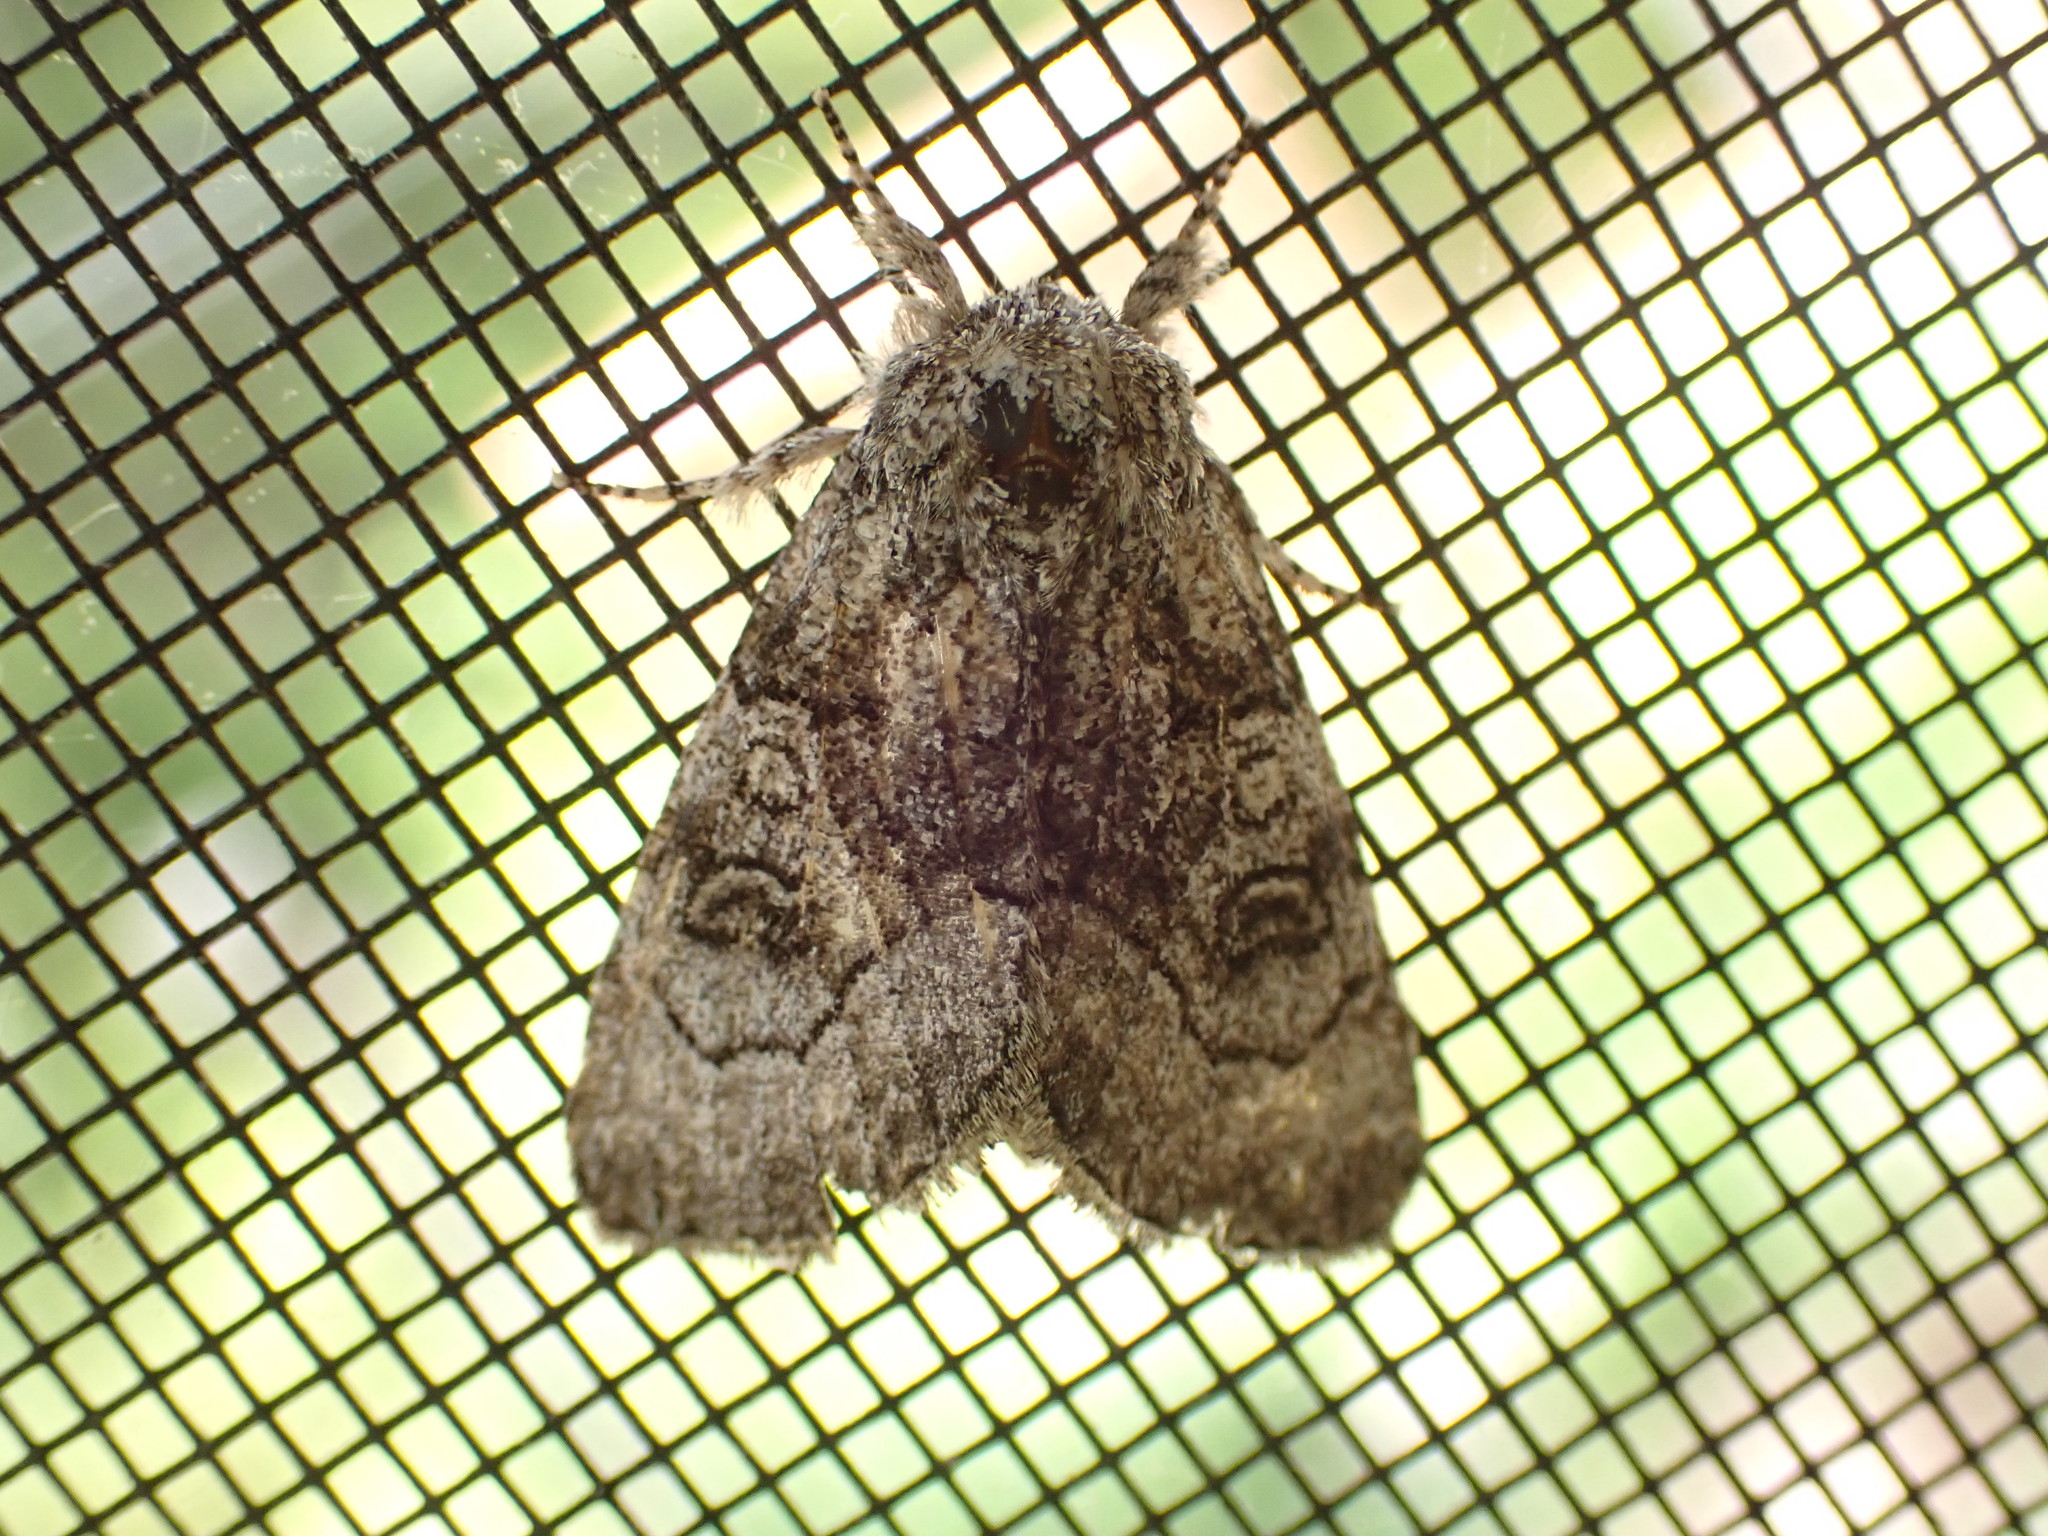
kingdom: Animalia
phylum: Arthropoda
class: Insecta
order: Lepidoptera
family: Noctuidae
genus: Raphia
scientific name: Raphia frater
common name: Brother
